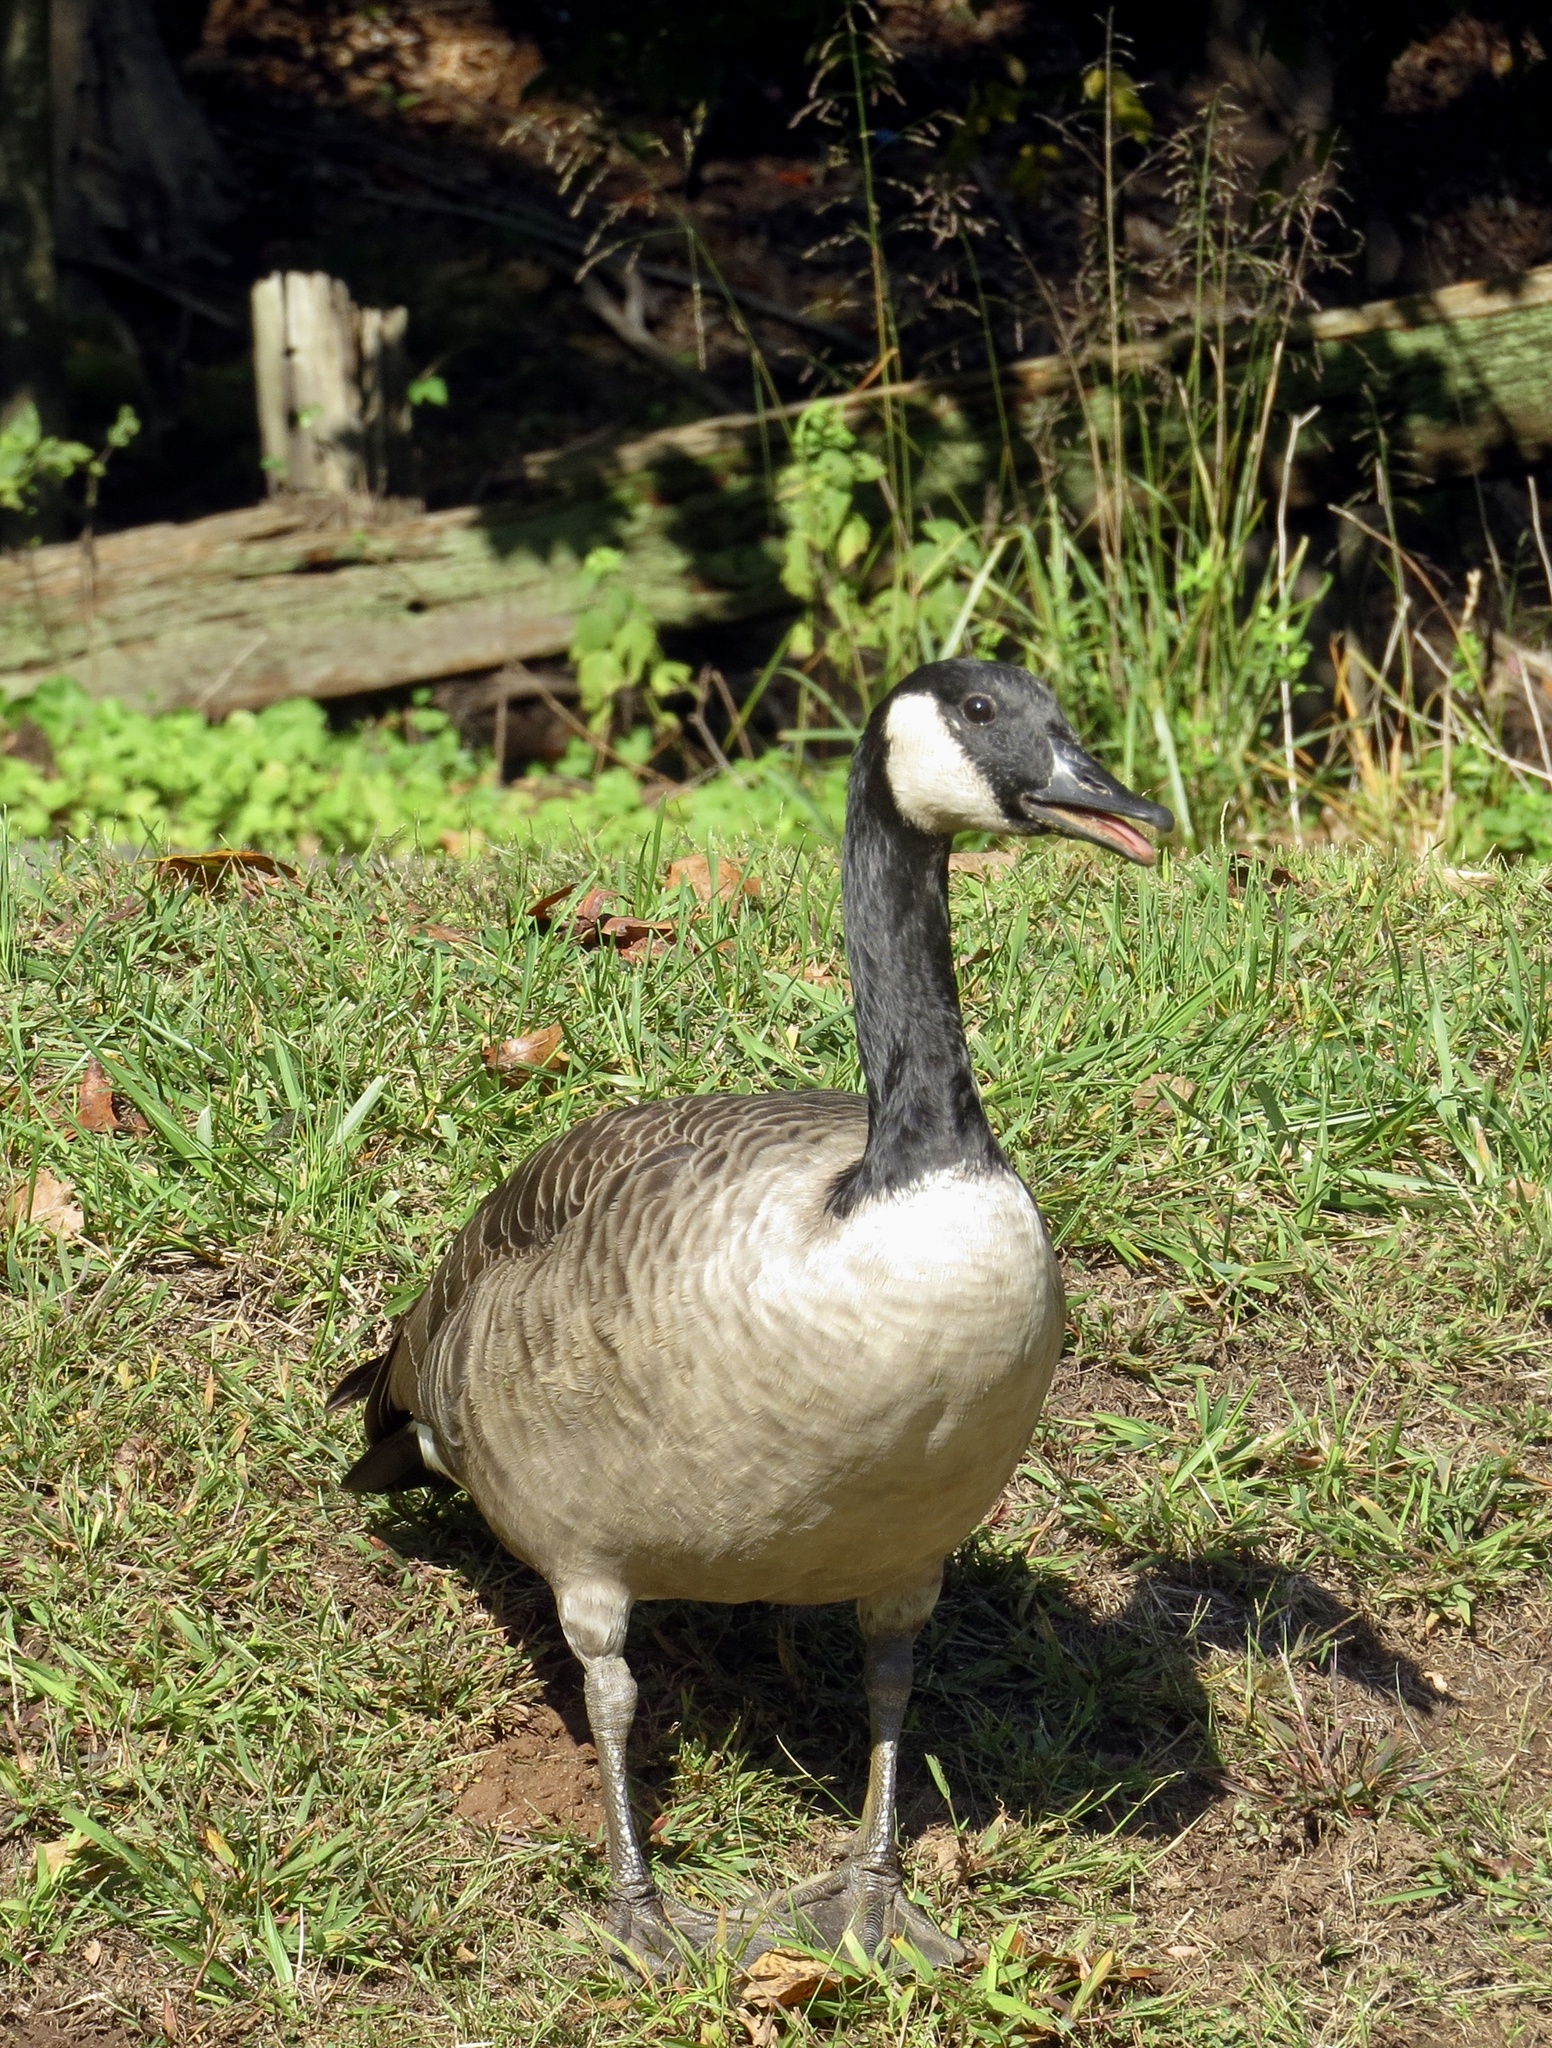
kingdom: Animalia
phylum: Chordata
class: Aves
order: Anseriformes
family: Anatidae
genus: Branta
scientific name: Branta canadensis
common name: Canada goose
